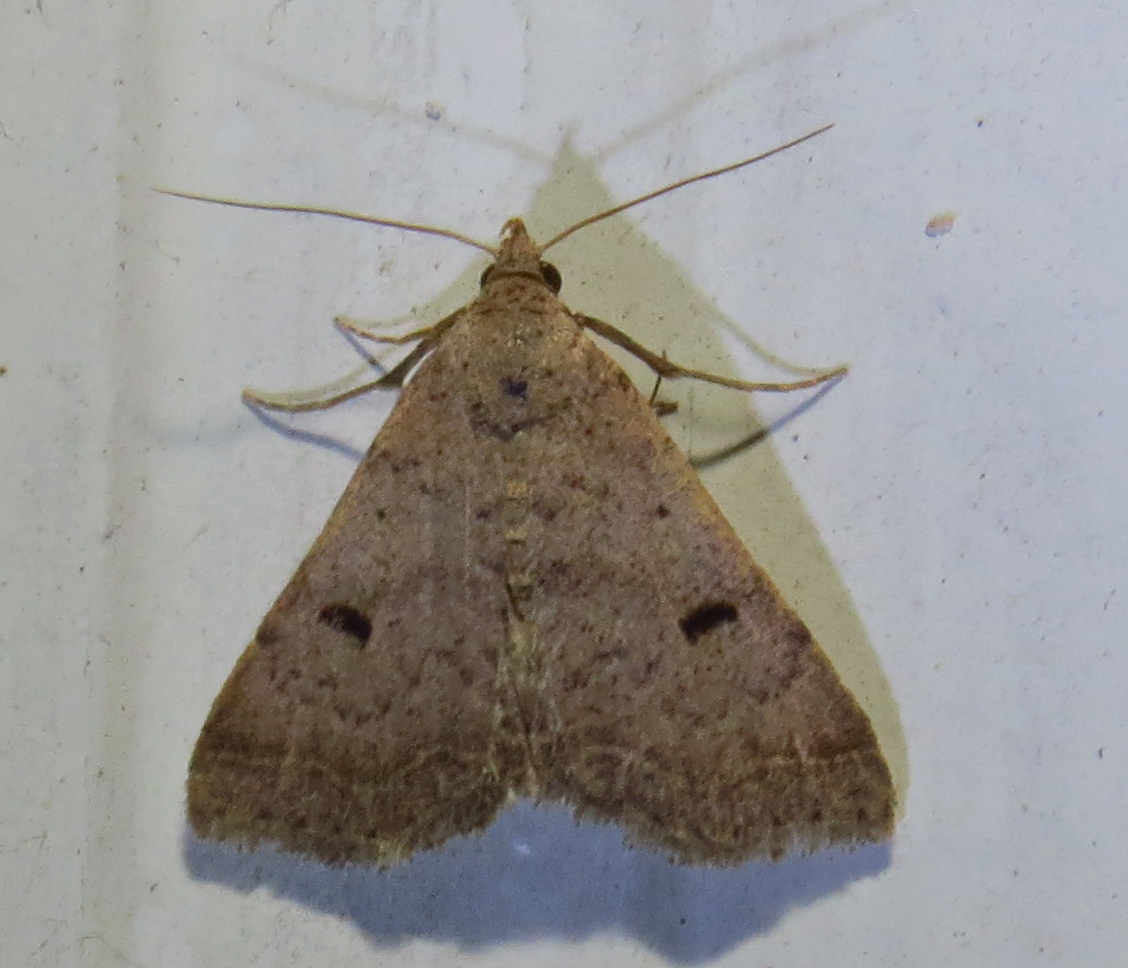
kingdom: Animalia
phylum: Arthropoda
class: Insecta
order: Lepidoptera
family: Erebidae
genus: Bleptina
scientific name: Bleptina caradrinalis
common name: Bent-winged owlet
